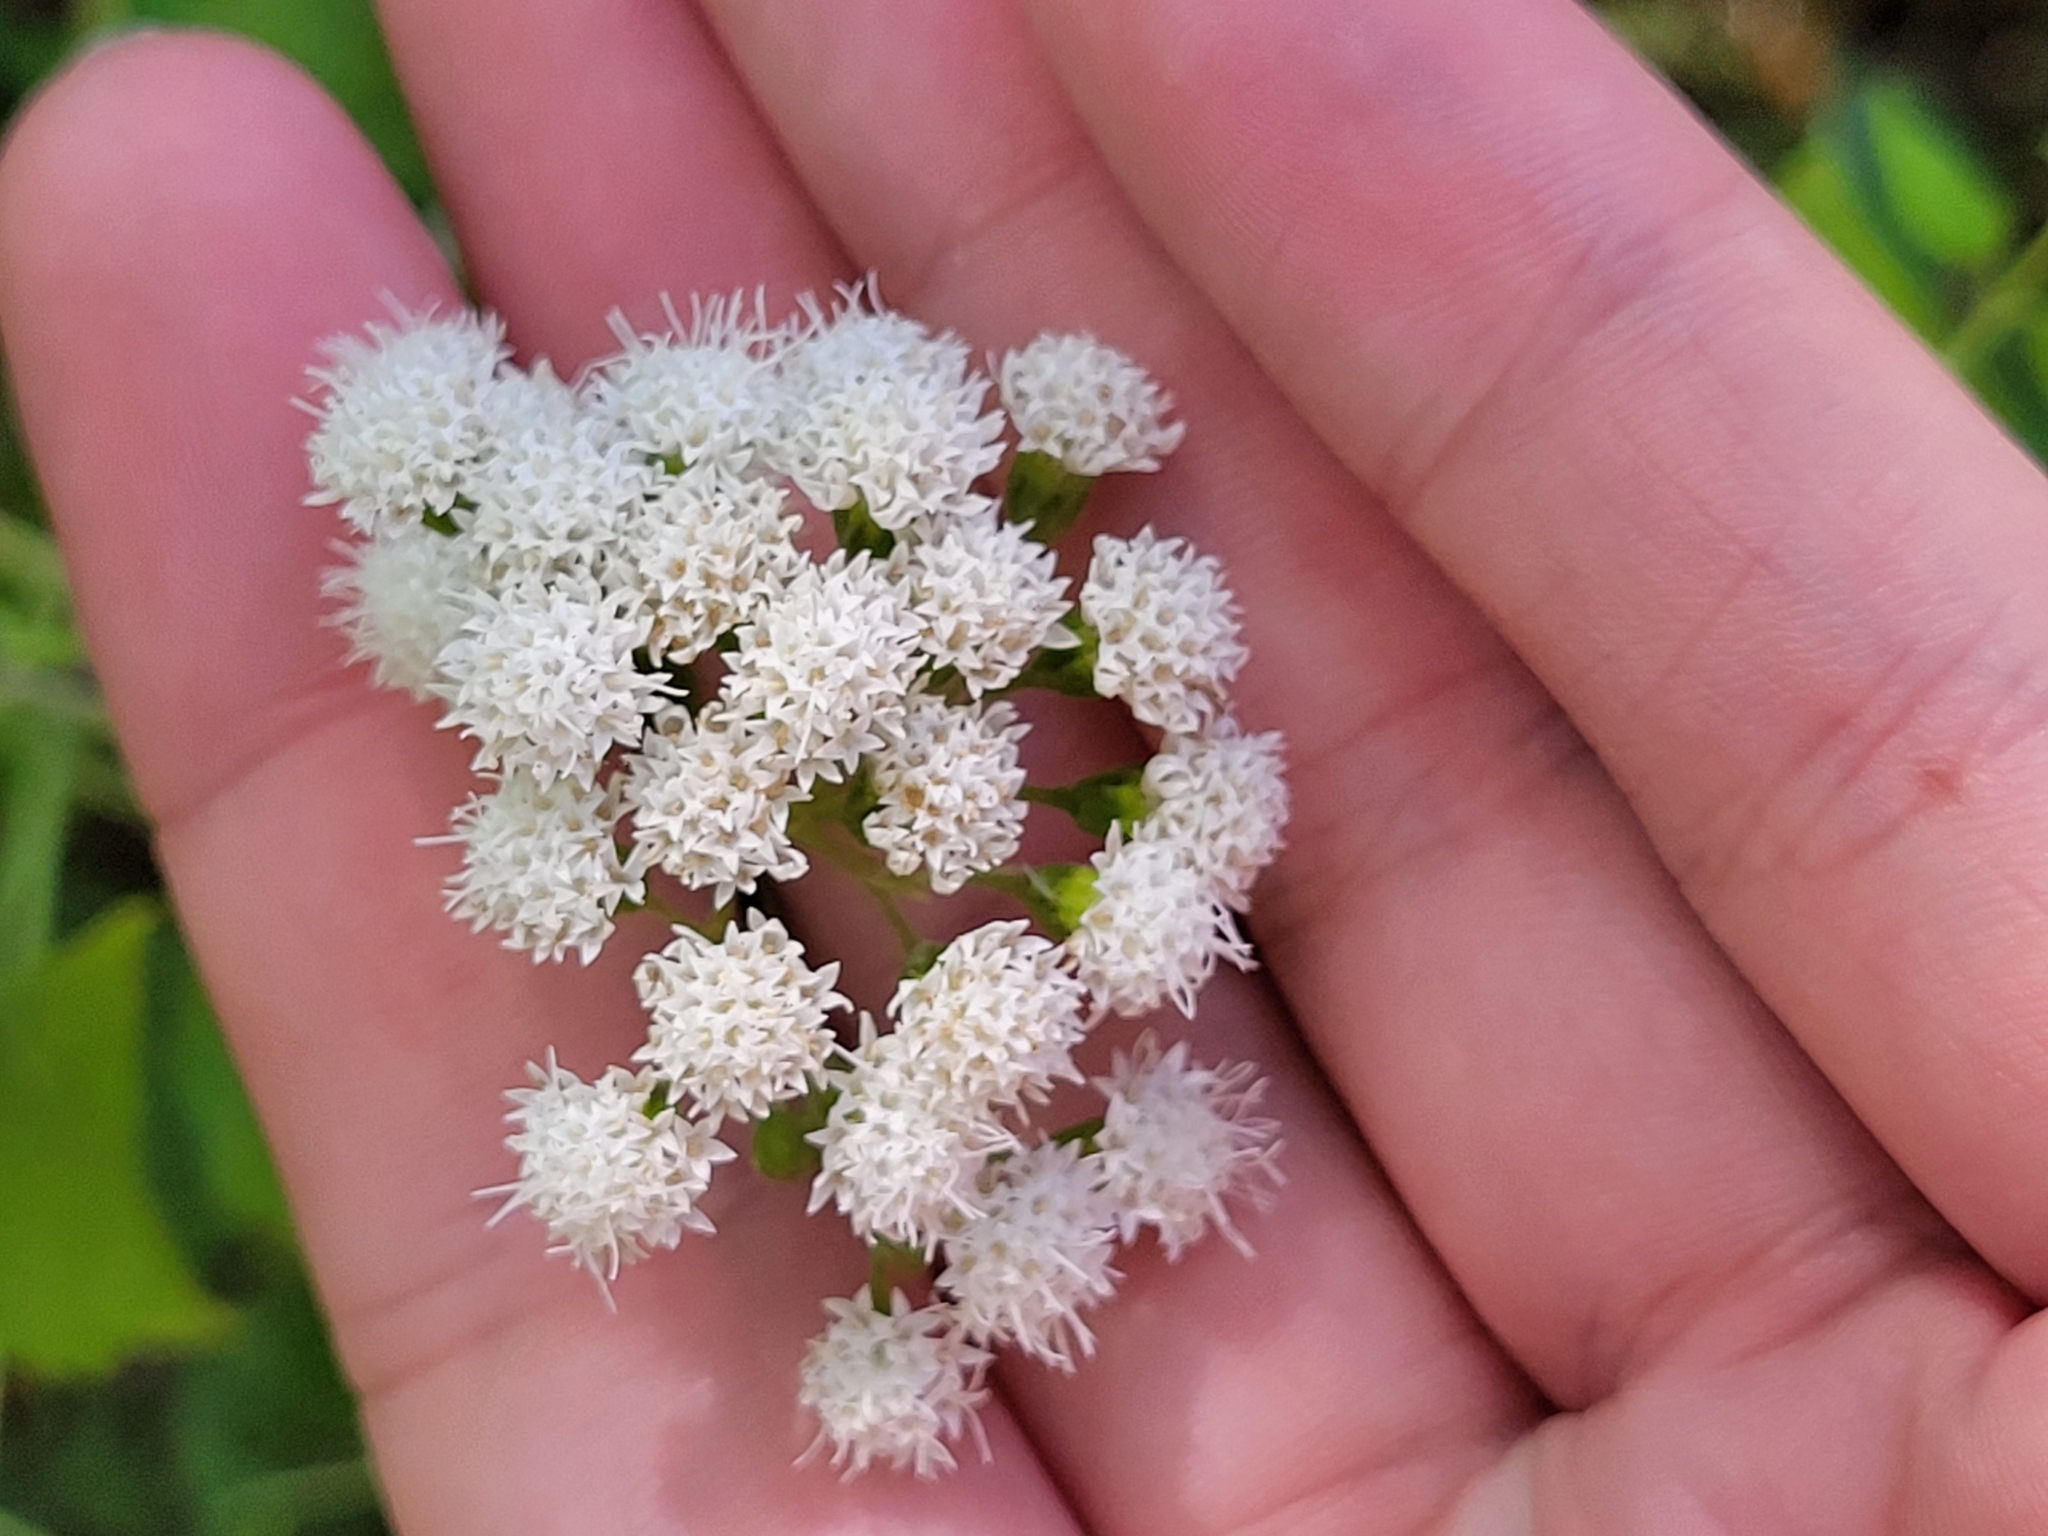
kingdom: Plantae
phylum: Tracheophyta
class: Magnoliopsida
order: Asterales
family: Asteraceae
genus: Ageratina
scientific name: Ageratina altissima
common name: White snakeroot
